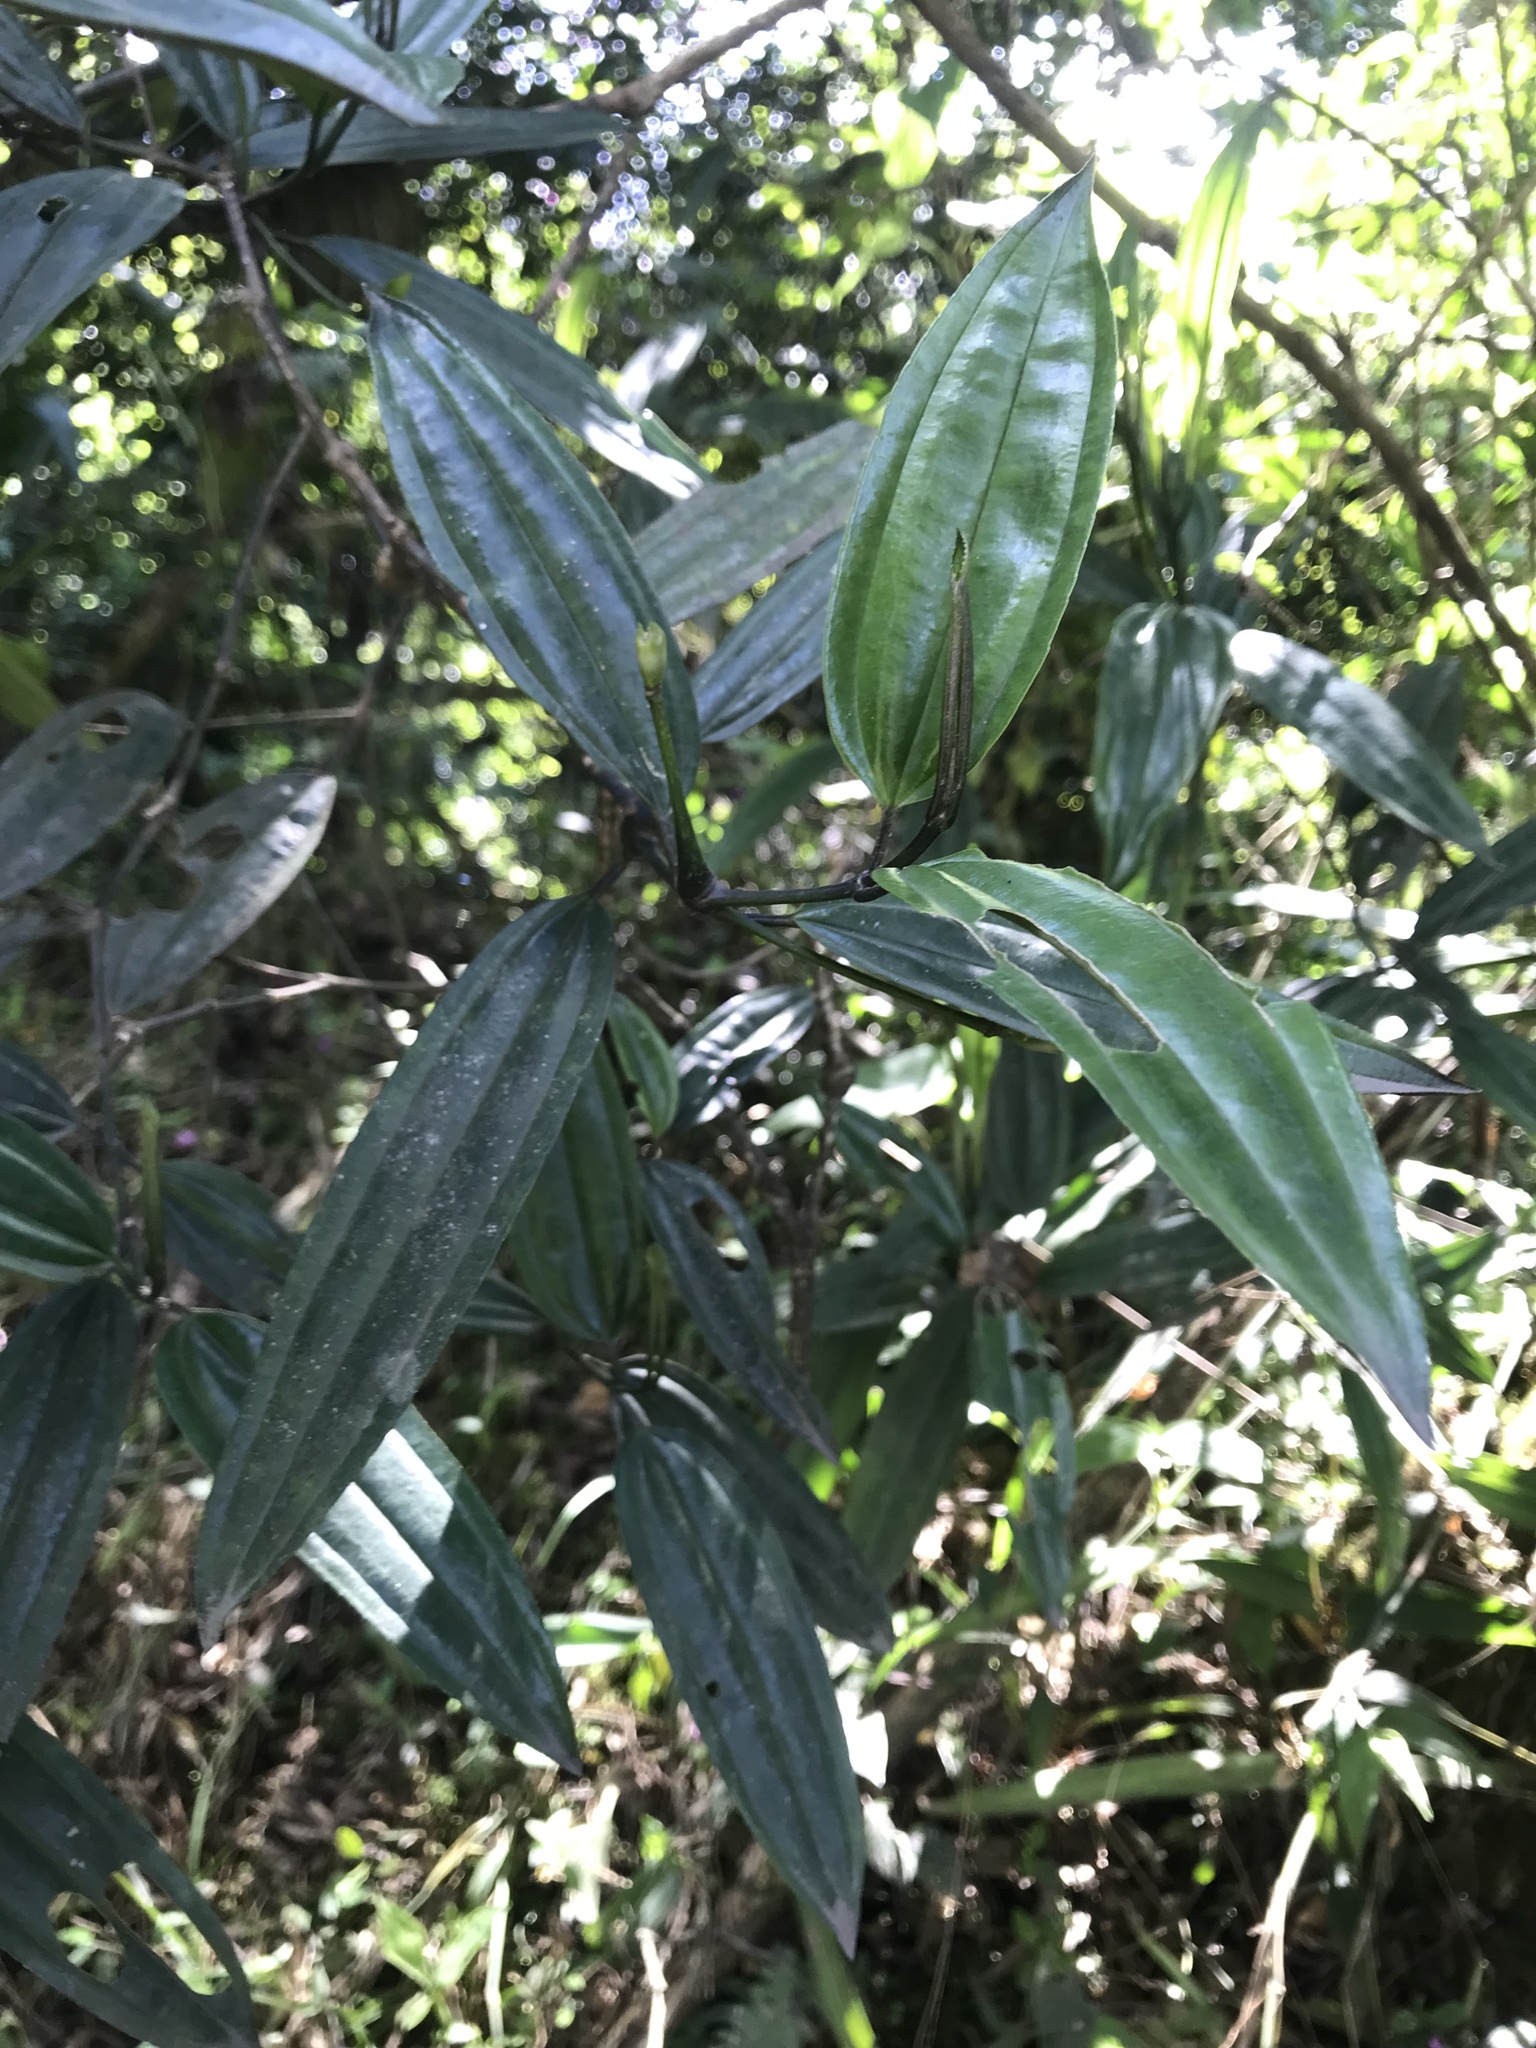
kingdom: Plantae
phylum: Tracheophyta
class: Magnoliopsida
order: Myrtales
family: Melastomataceae
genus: Meriania
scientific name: Meriania speciosa
